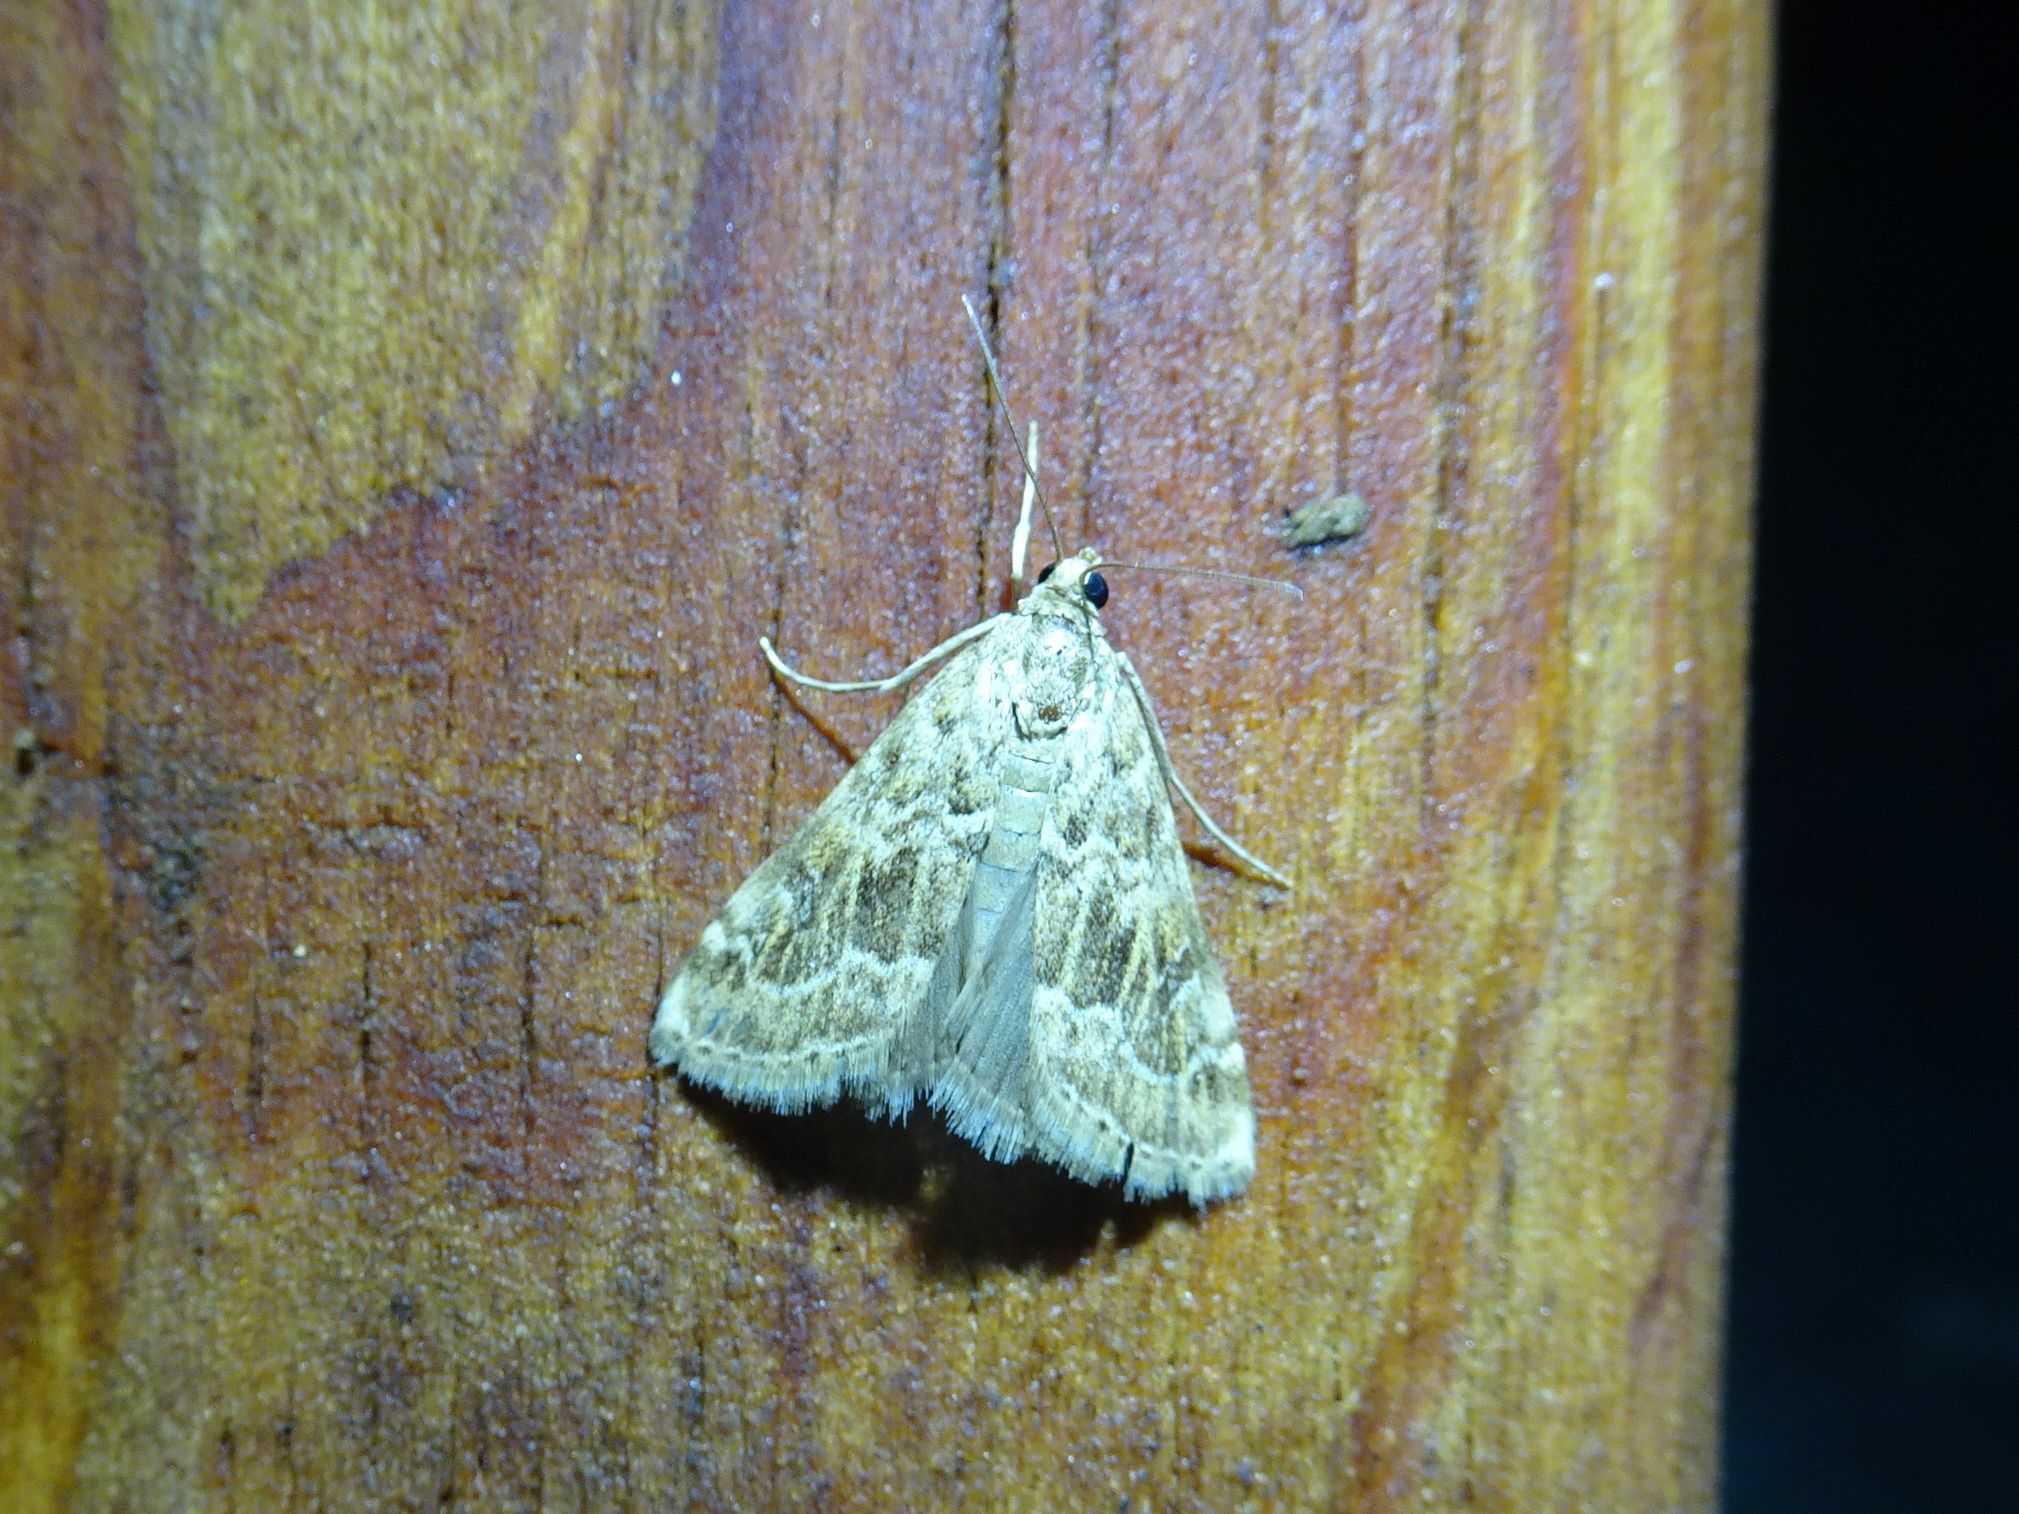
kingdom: Animalia
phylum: Arthropoda
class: Insecta
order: Lepidoptera
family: Crambidae
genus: Hellula
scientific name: Hellula undalis
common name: Cabbage webworm
